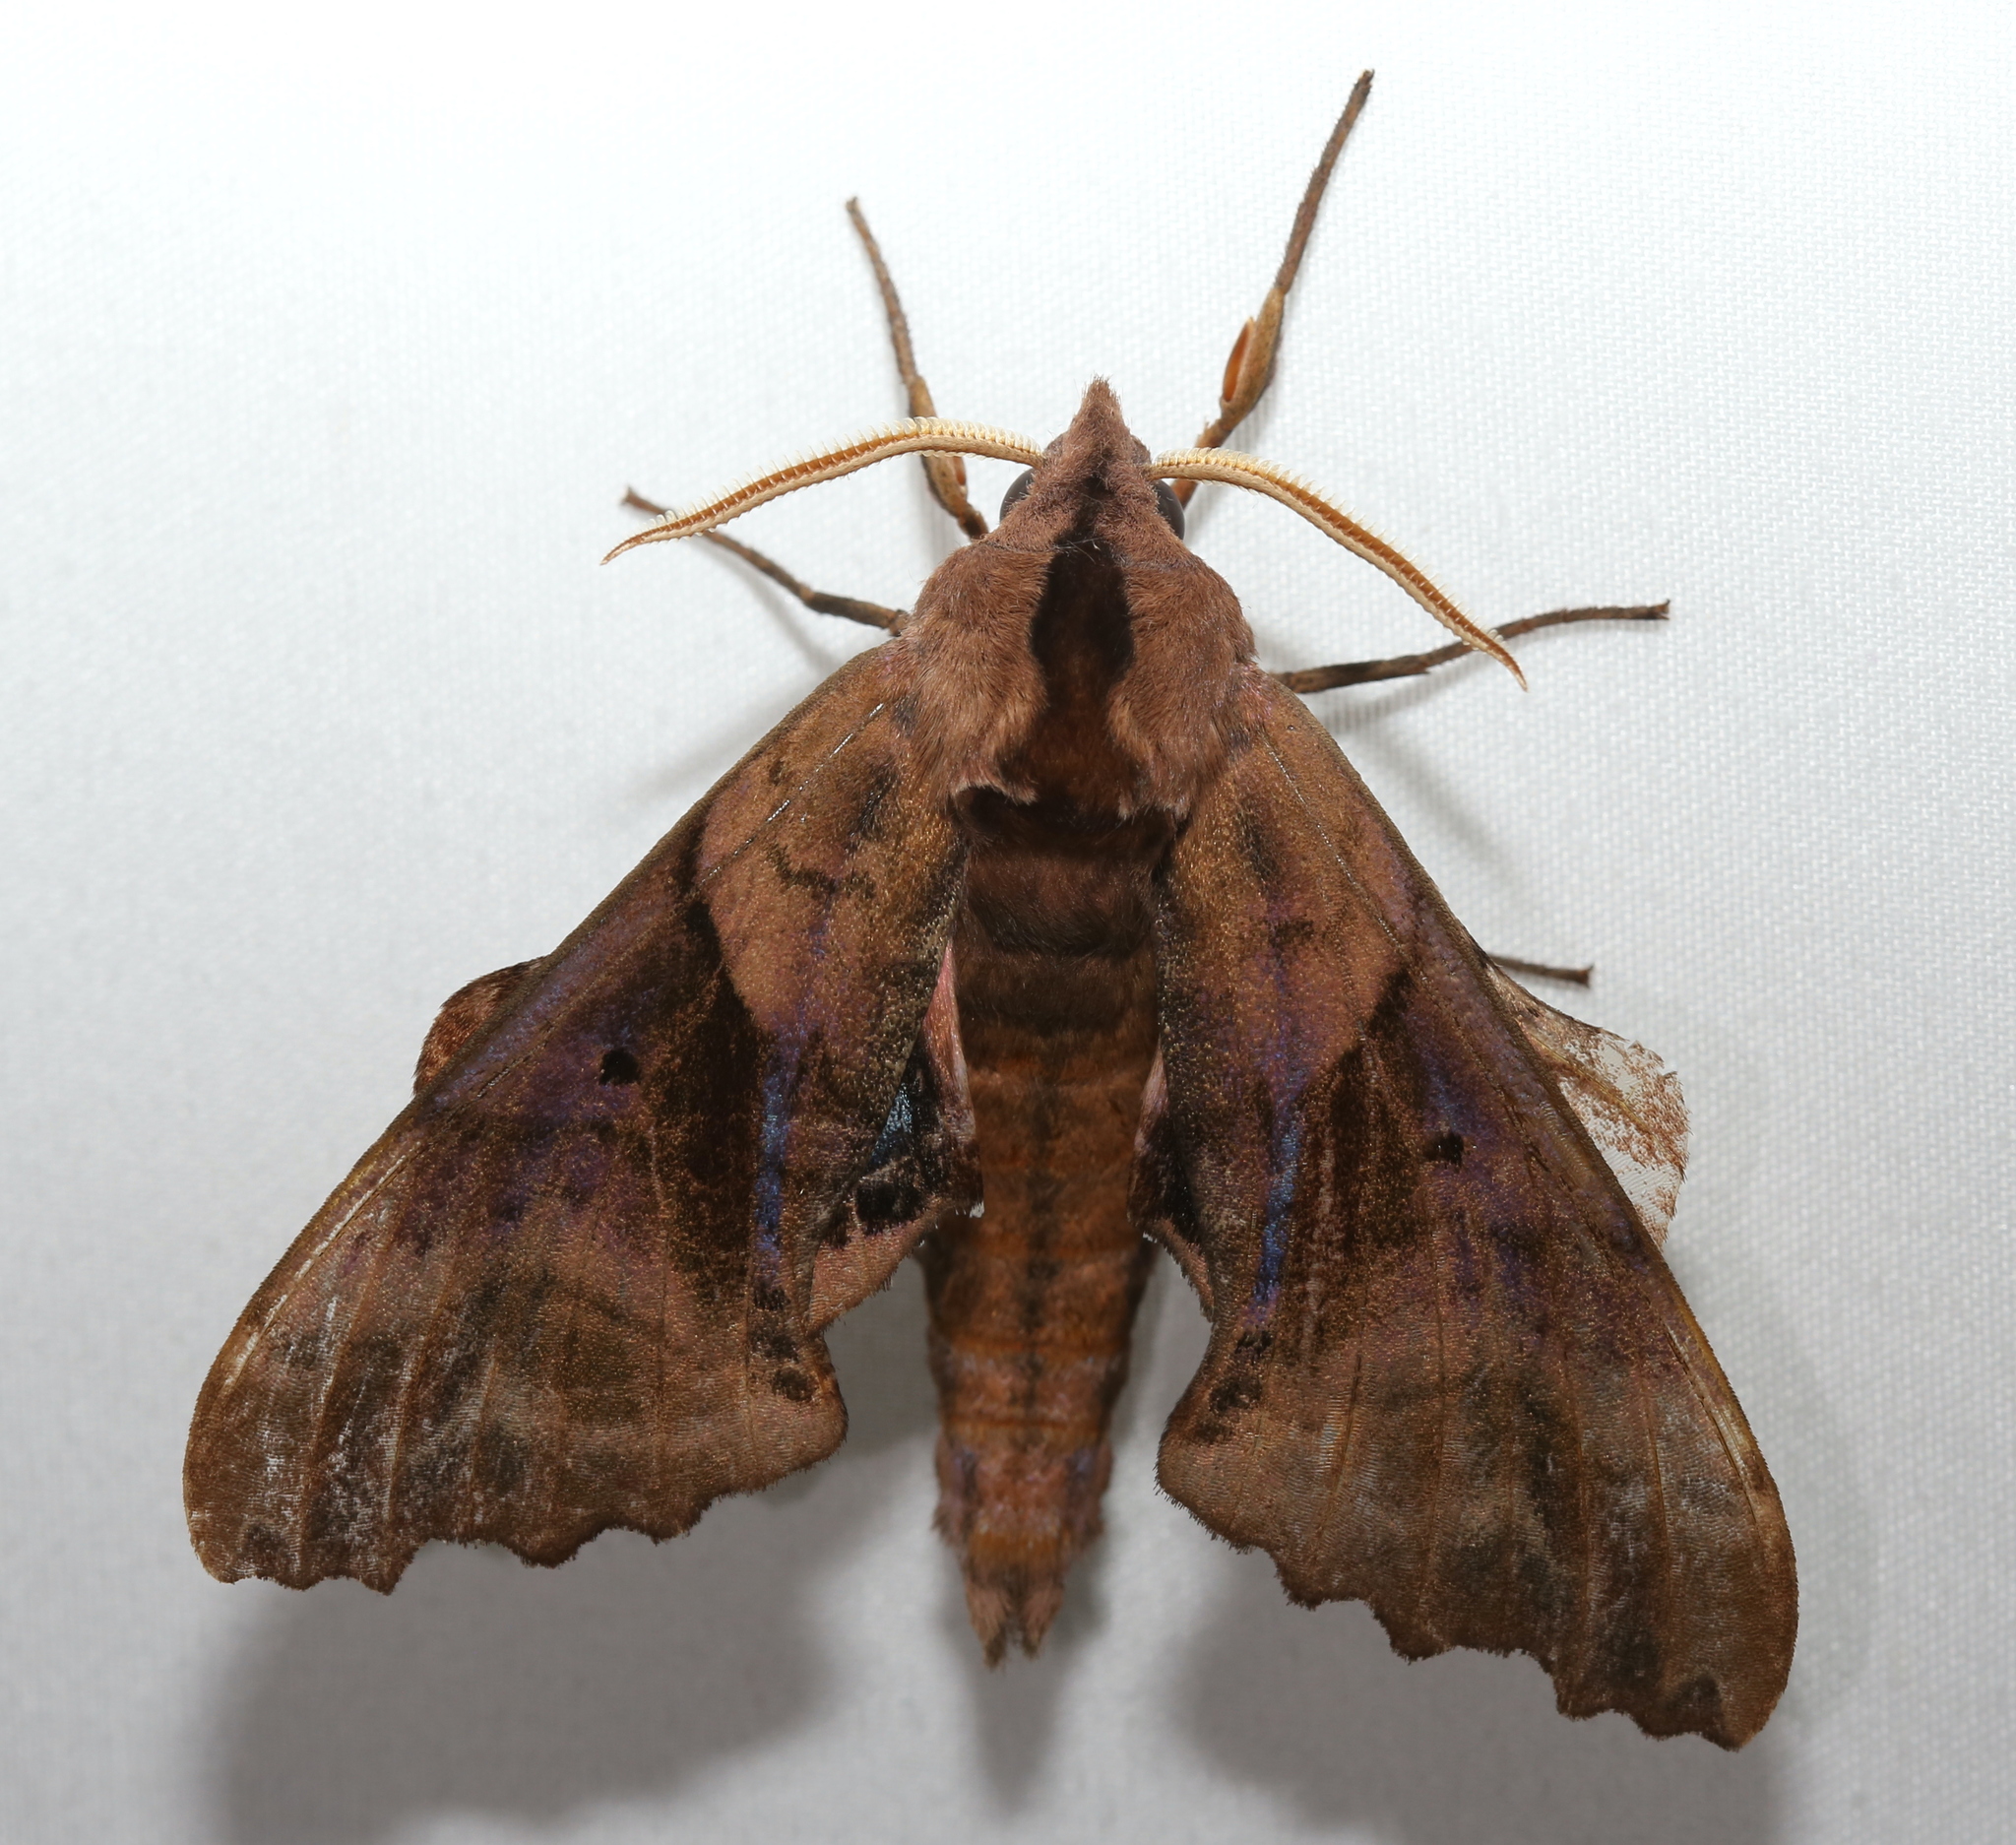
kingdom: Animalia
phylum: Arthropoda
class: Insecta
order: Lepidoptera
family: Sphingidae
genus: Paonias
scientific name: Paonias excaecata
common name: Blind-eyed sphinx
